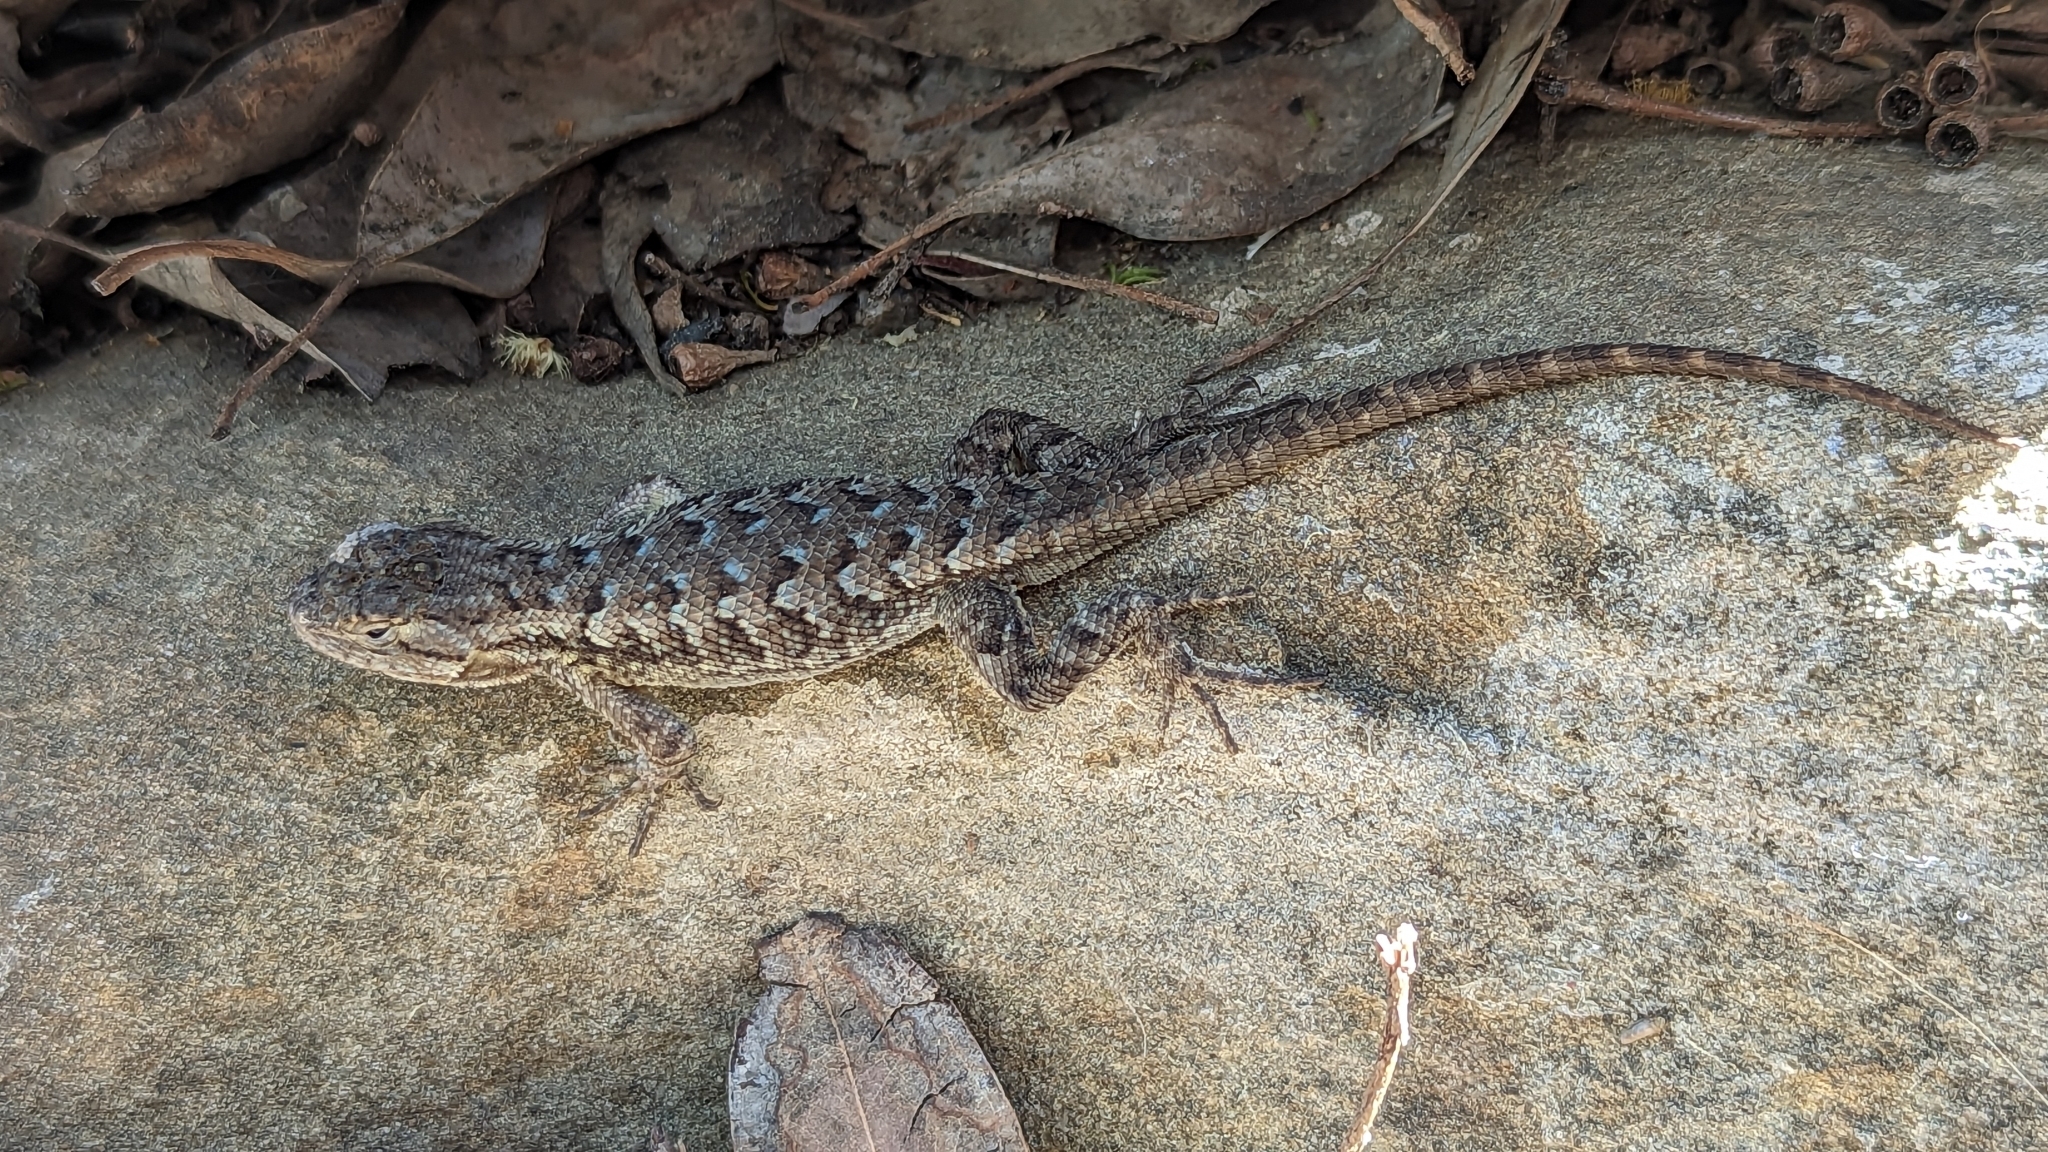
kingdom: Animalia
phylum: Chordata
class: Squamata
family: Phrynosomatidae
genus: Sceloporus
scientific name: Sceloporus occidentalis
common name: Western fence lizard
